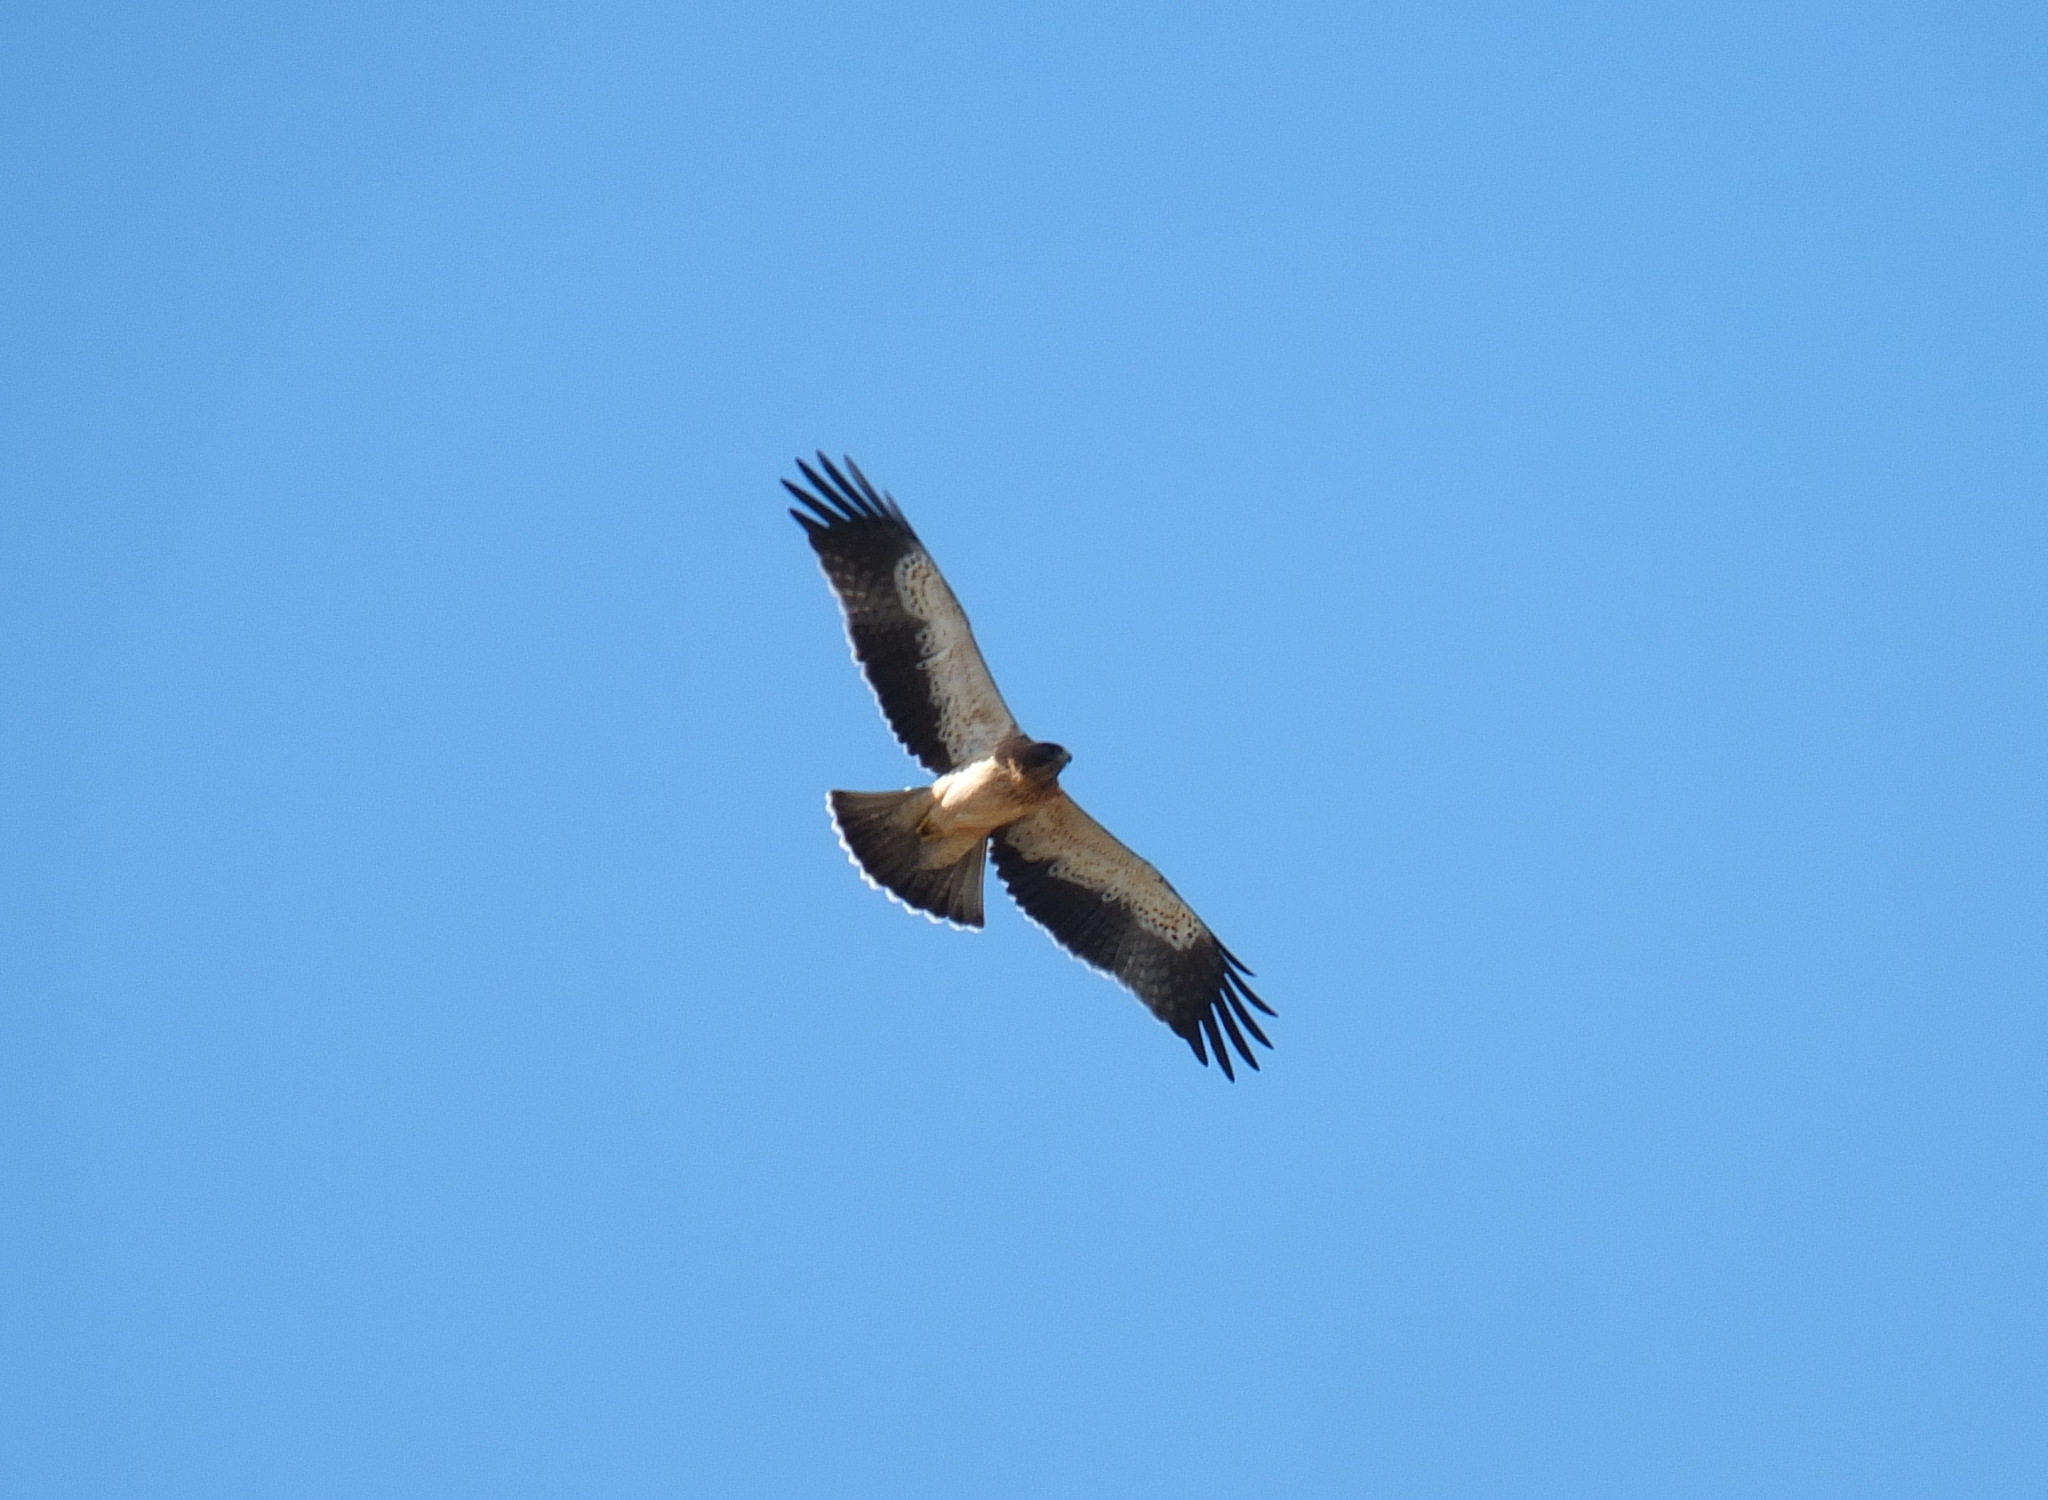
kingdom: Animalia
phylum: Chordata
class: Aves
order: Accipitriformes
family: Accipitridae
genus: Hieraaetus
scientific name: Hieraaetus pennatus
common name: Booted eagle
